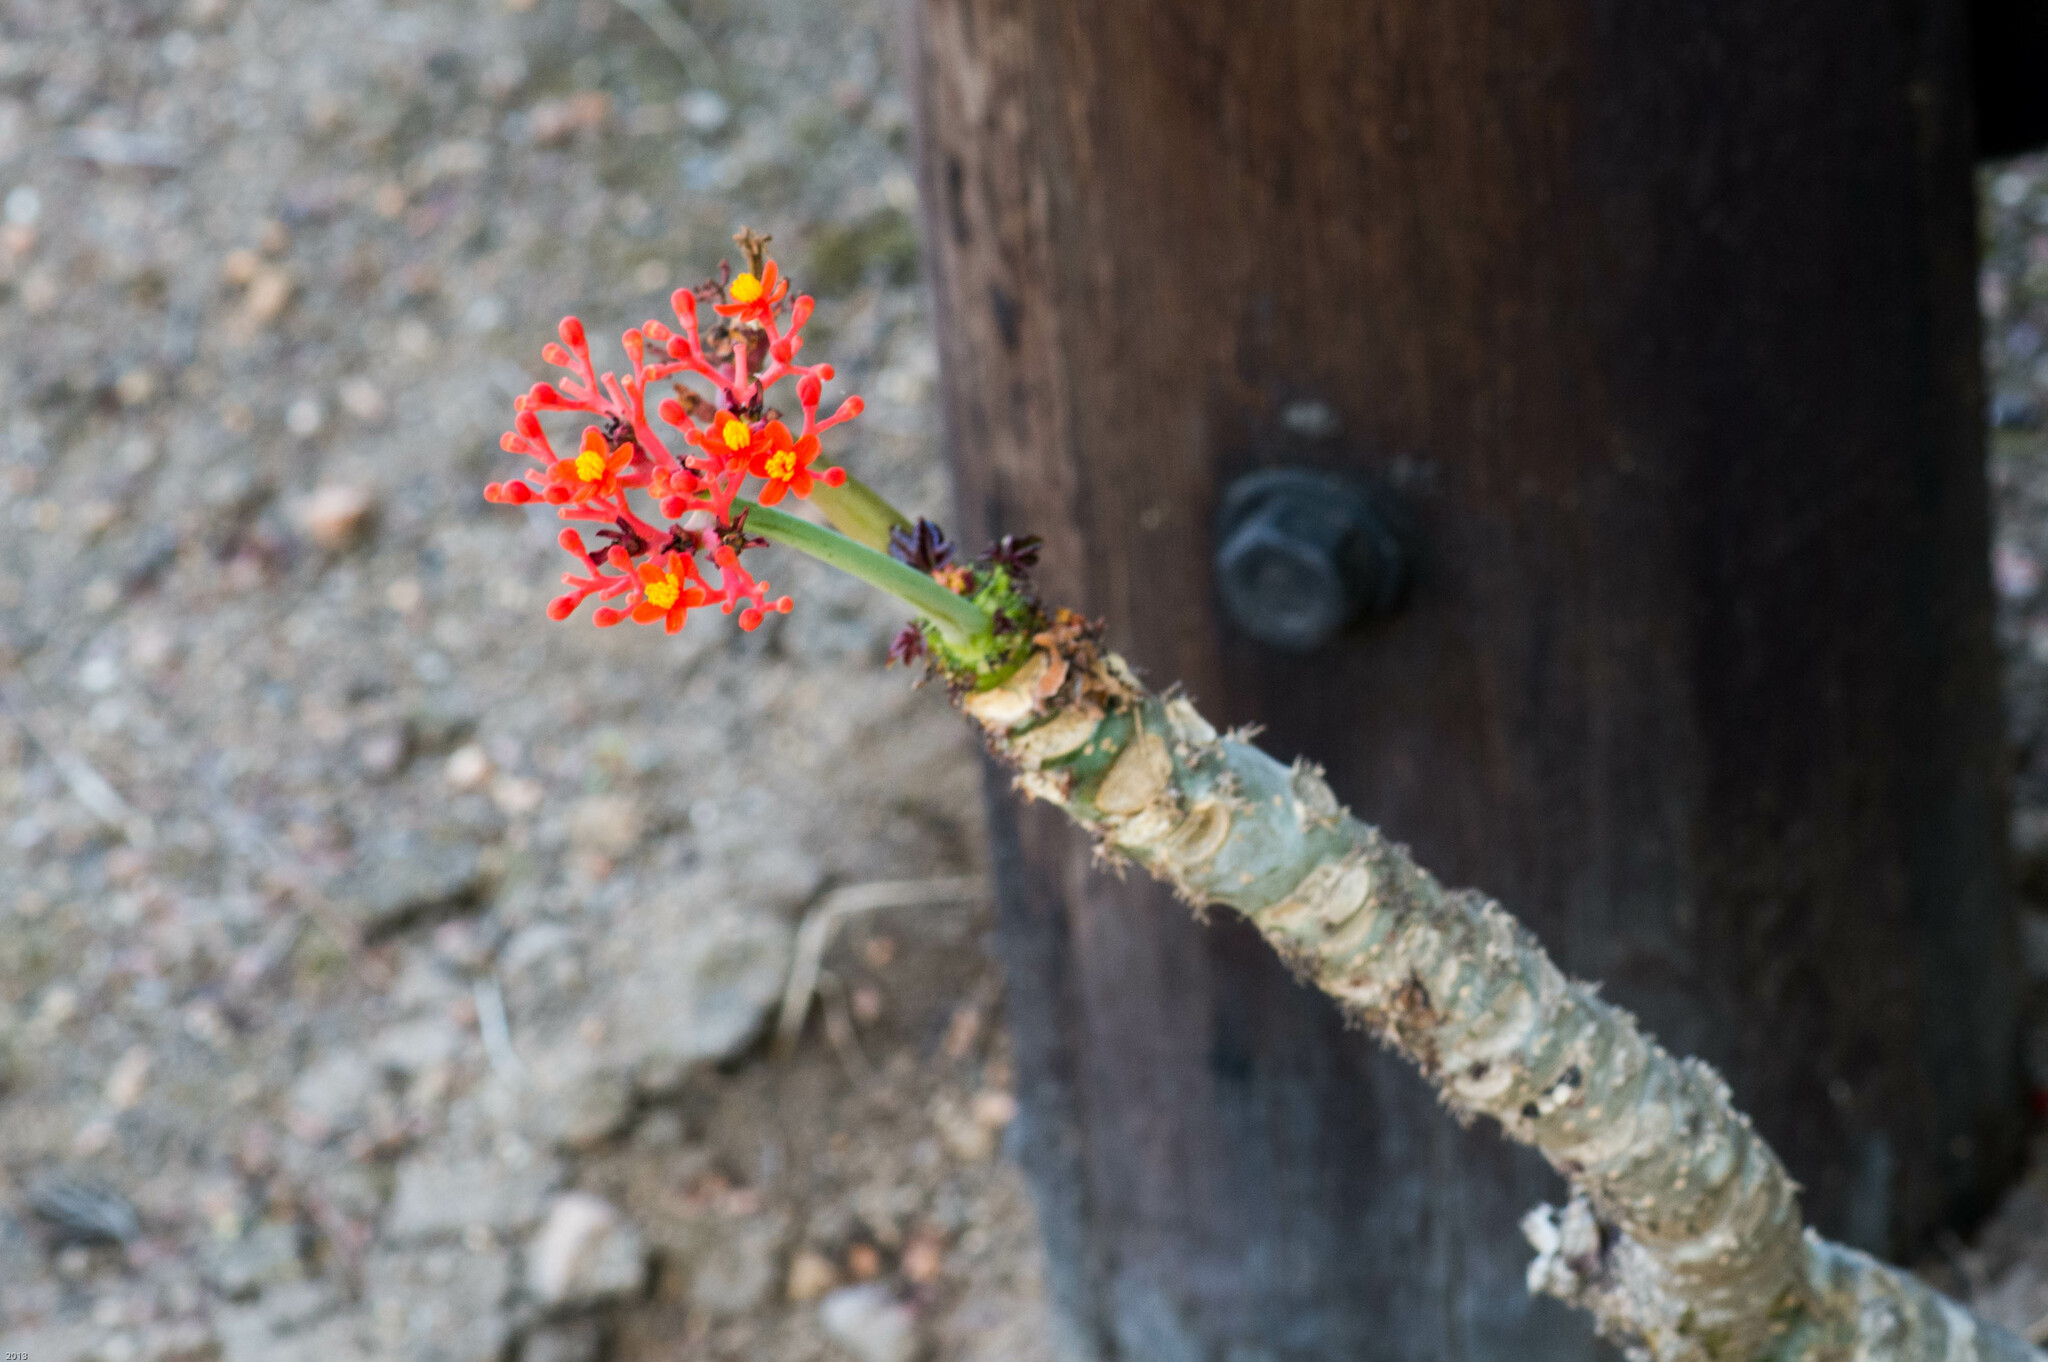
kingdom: Plantae
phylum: Tracheophyta
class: Magnoliopsida
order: Malpighiales
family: Euphorbiaceae
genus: Jatropha
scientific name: Jatropha podagrica
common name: Gout stalk
